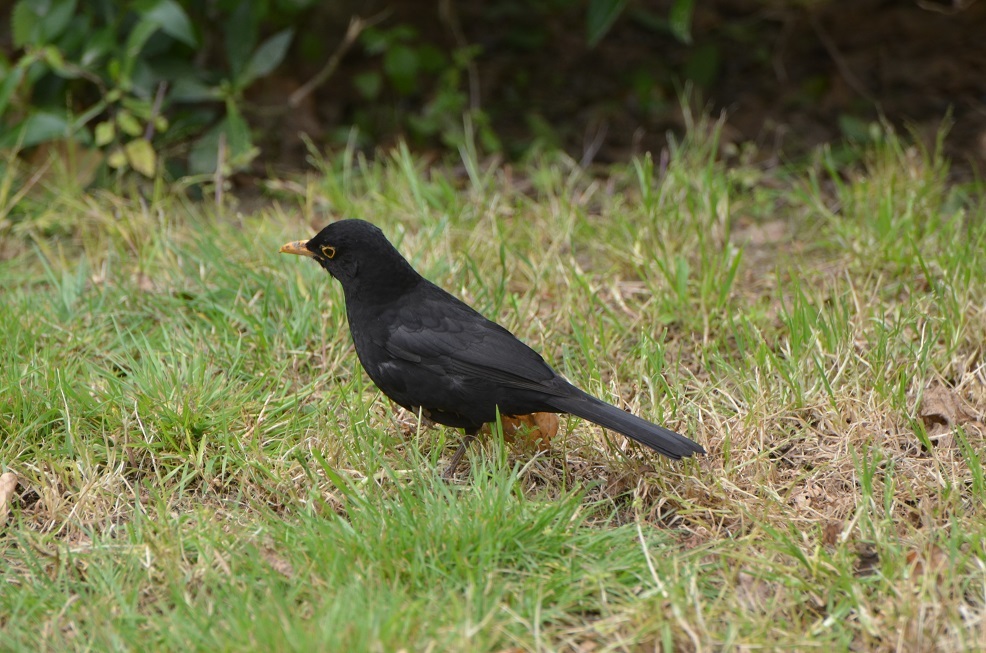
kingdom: Animalia
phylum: Chordata
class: Aves
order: Passeriformes
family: Turdidae
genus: Turdus
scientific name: Turdus merula
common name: Common blackbird
